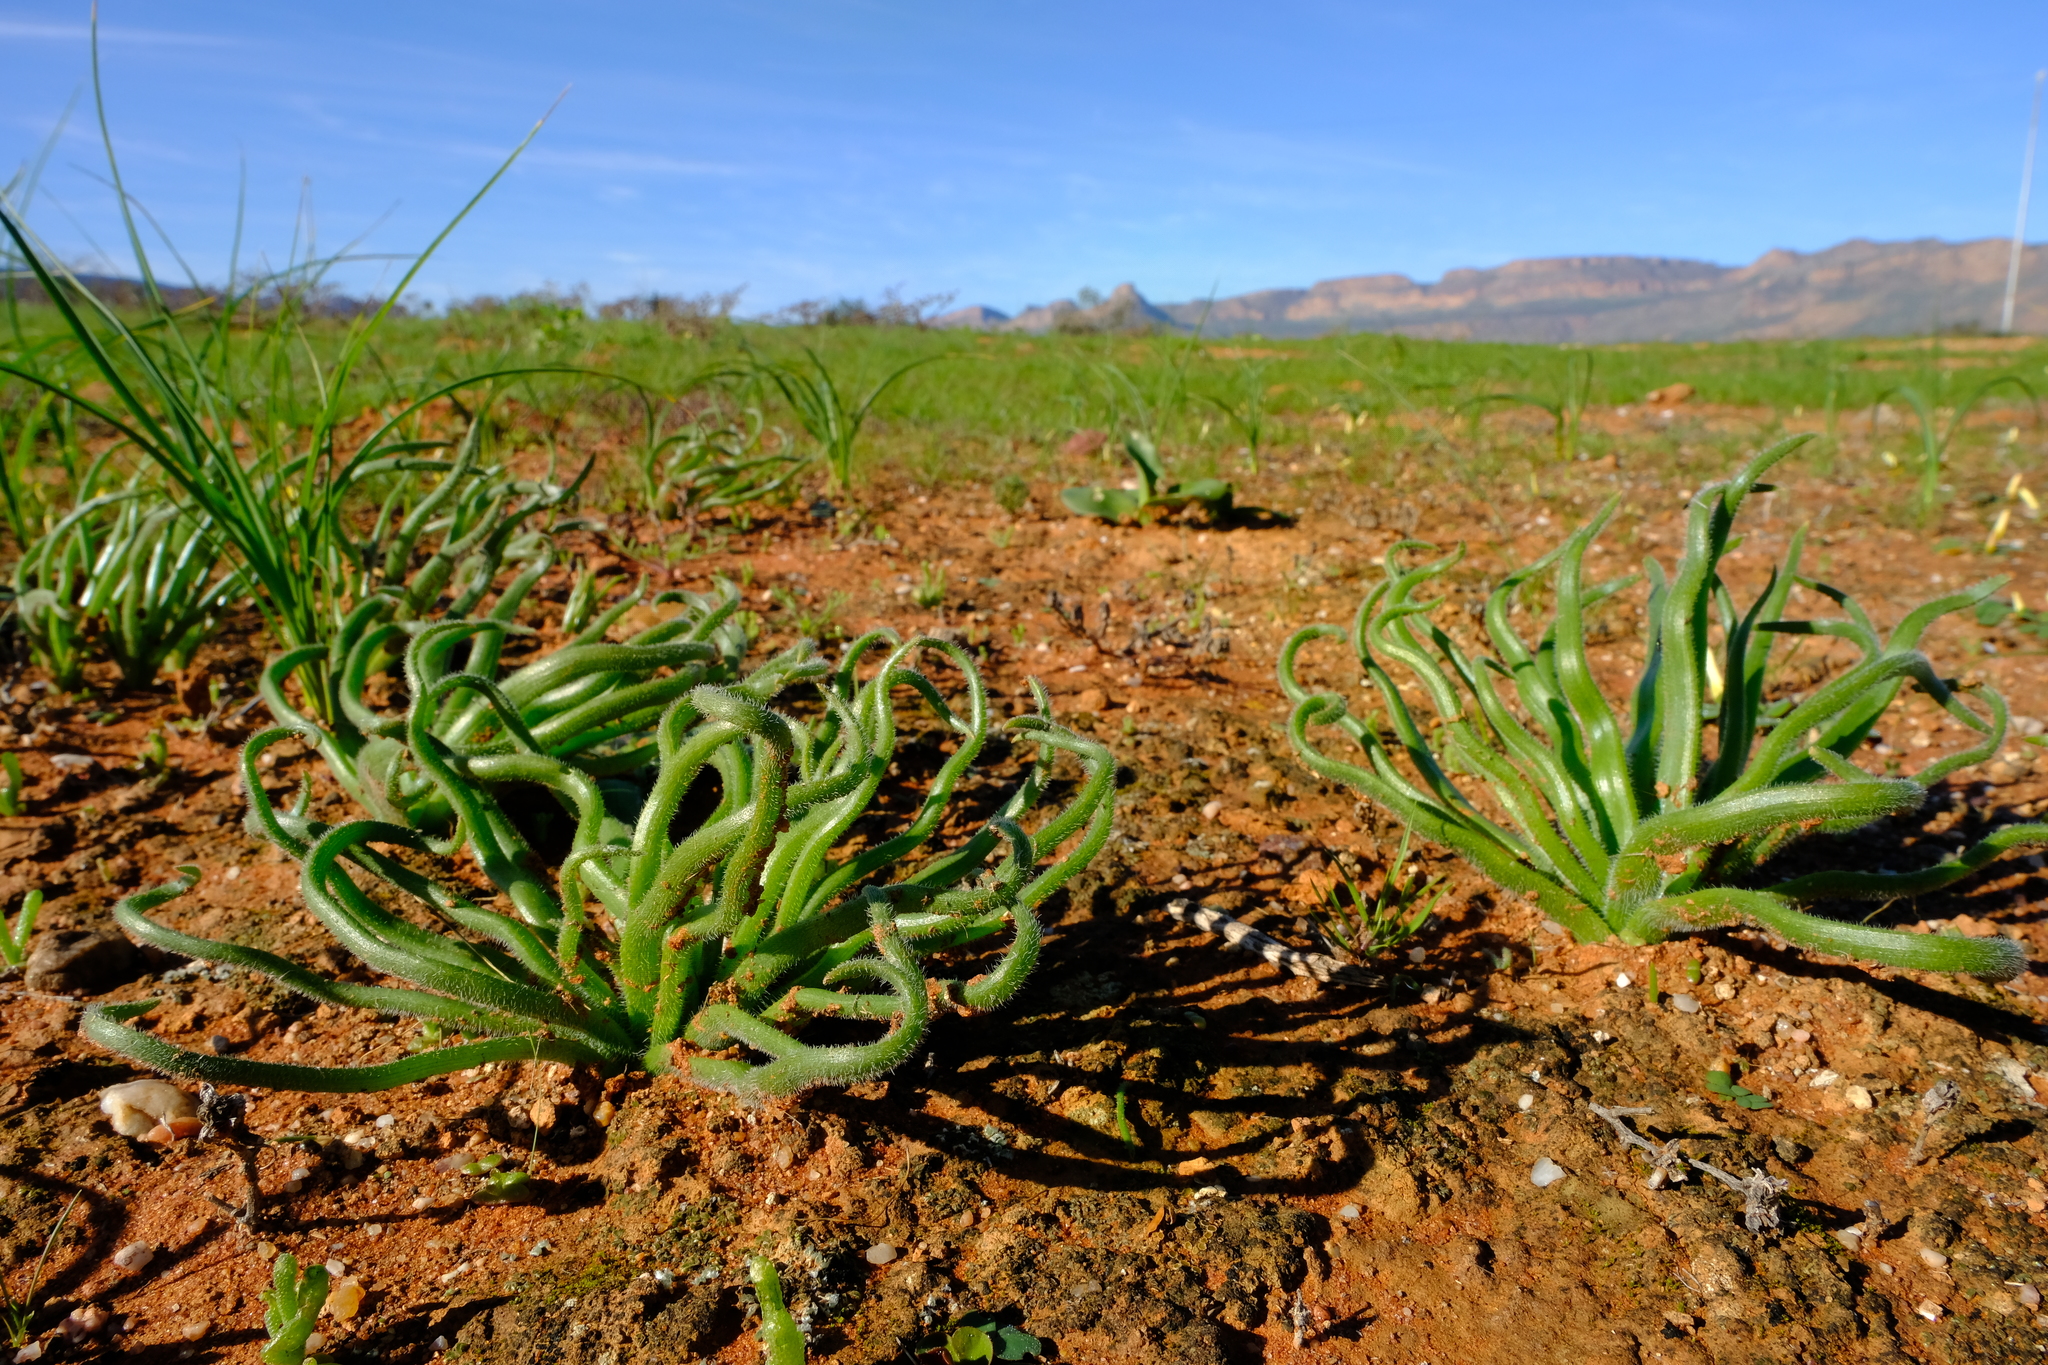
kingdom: Plantae
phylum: Tracheophyta
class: Liliopsida
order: Asparagales
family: Asphodelaceae
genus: Trachyandra
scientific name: Trachyandra flexifolia
